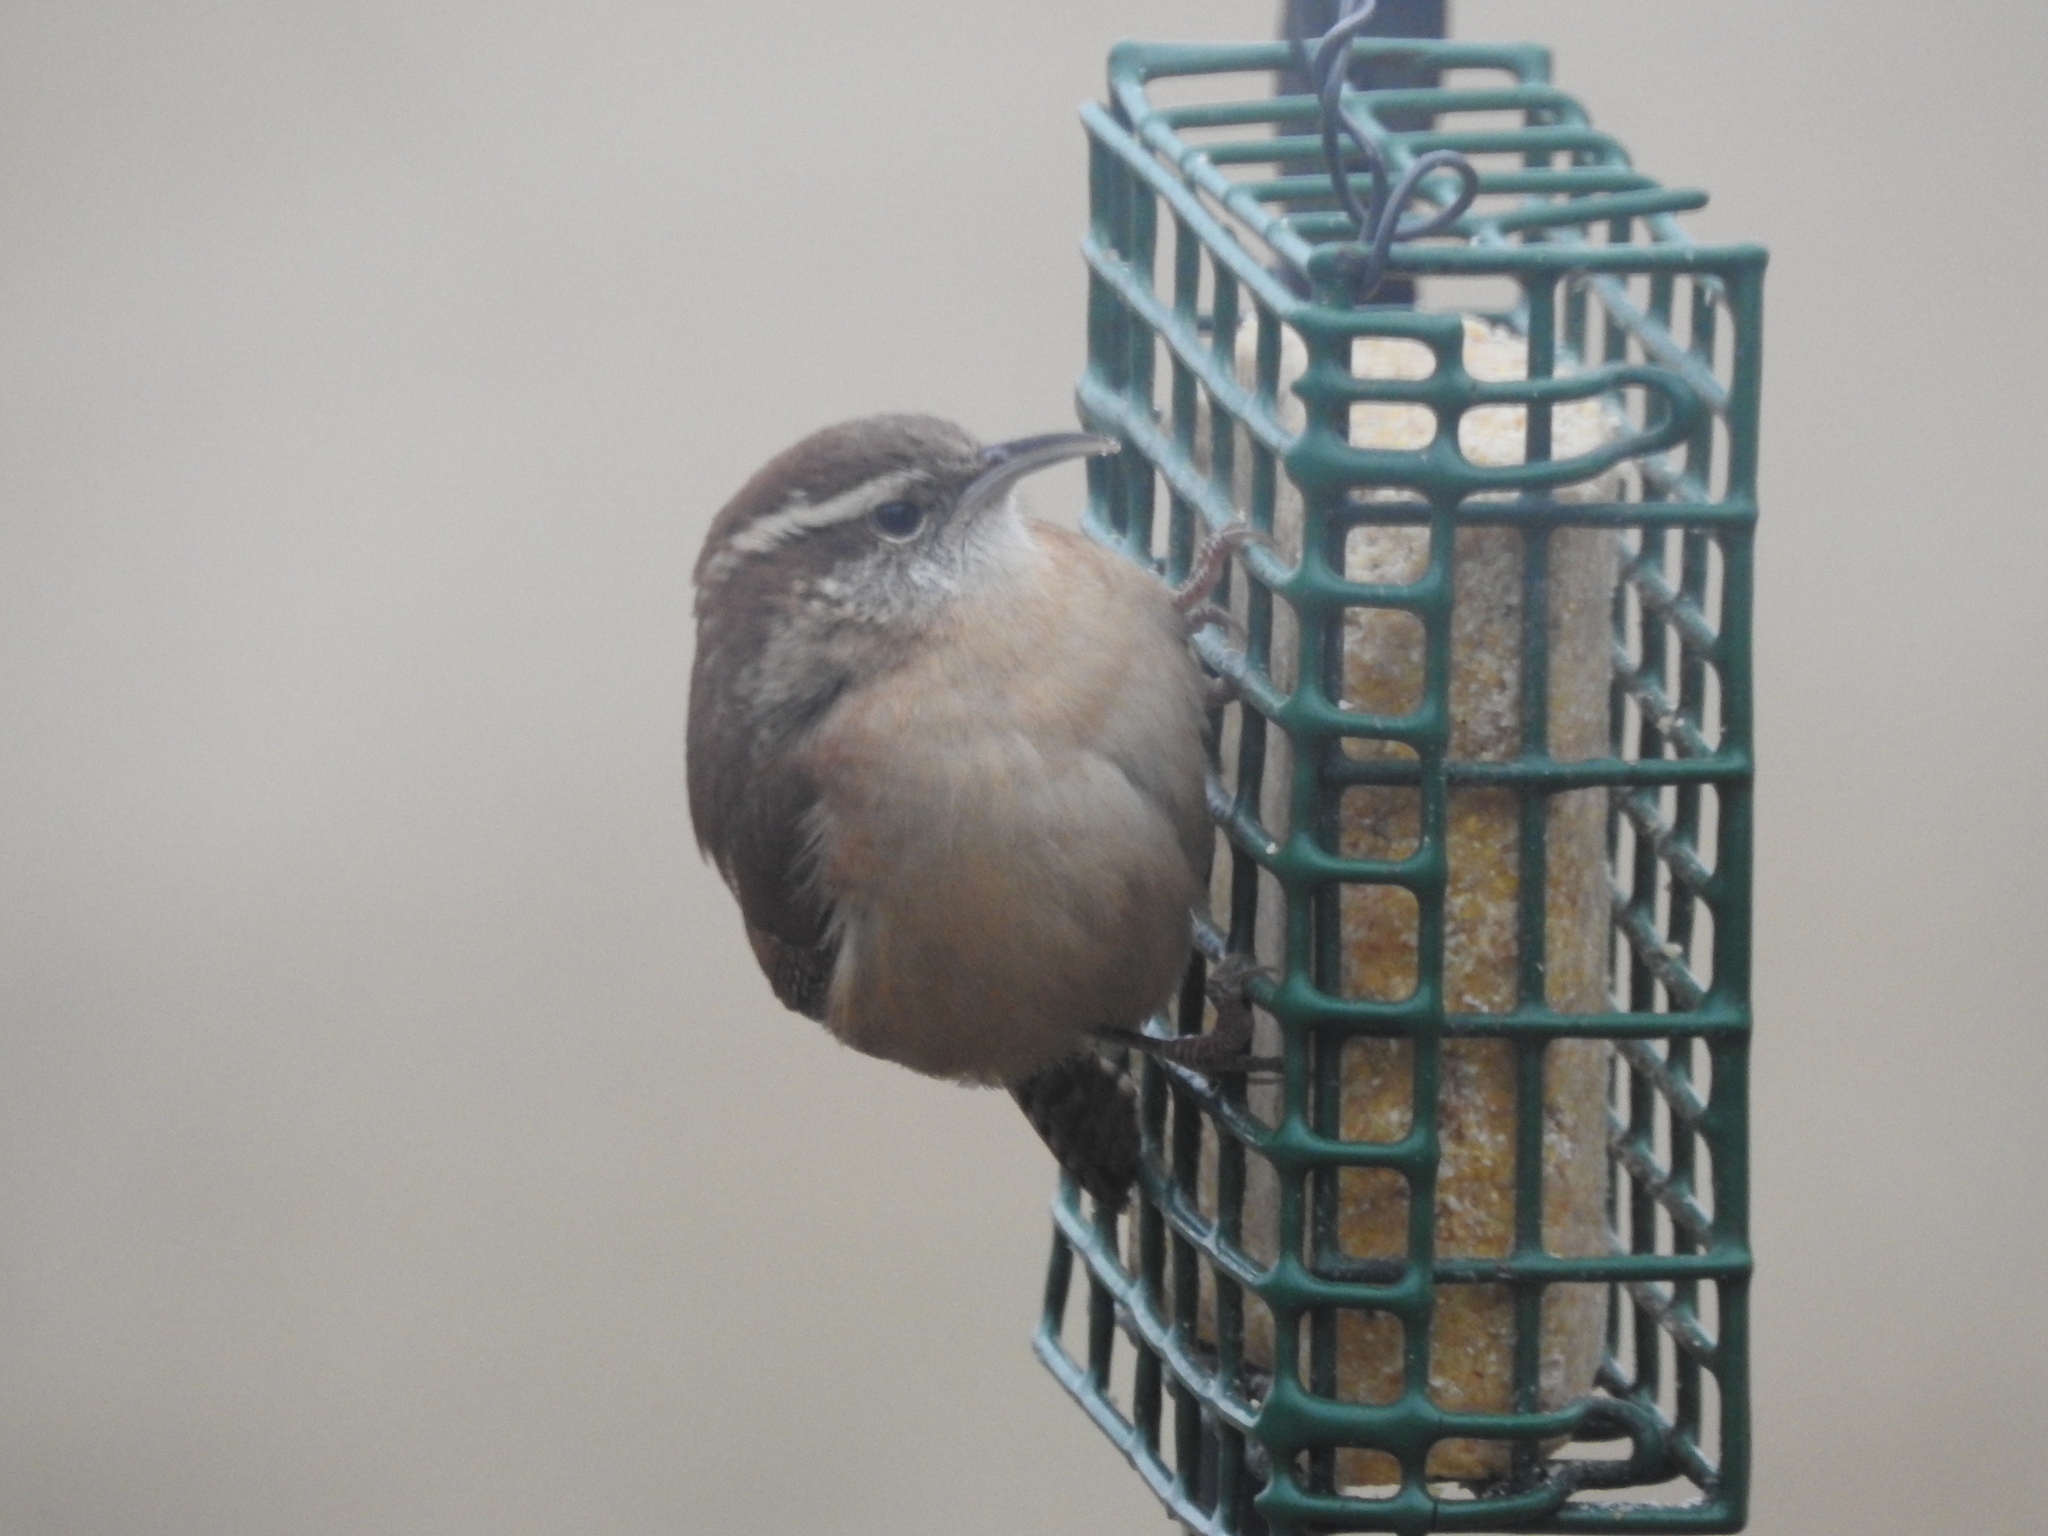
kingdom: Animalia
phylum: Chordata
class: Aves
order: Passeriformes
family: Troglodytidae
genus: Thryothorus
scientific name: Thryothorus ludovicianus
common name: Carolina wren
